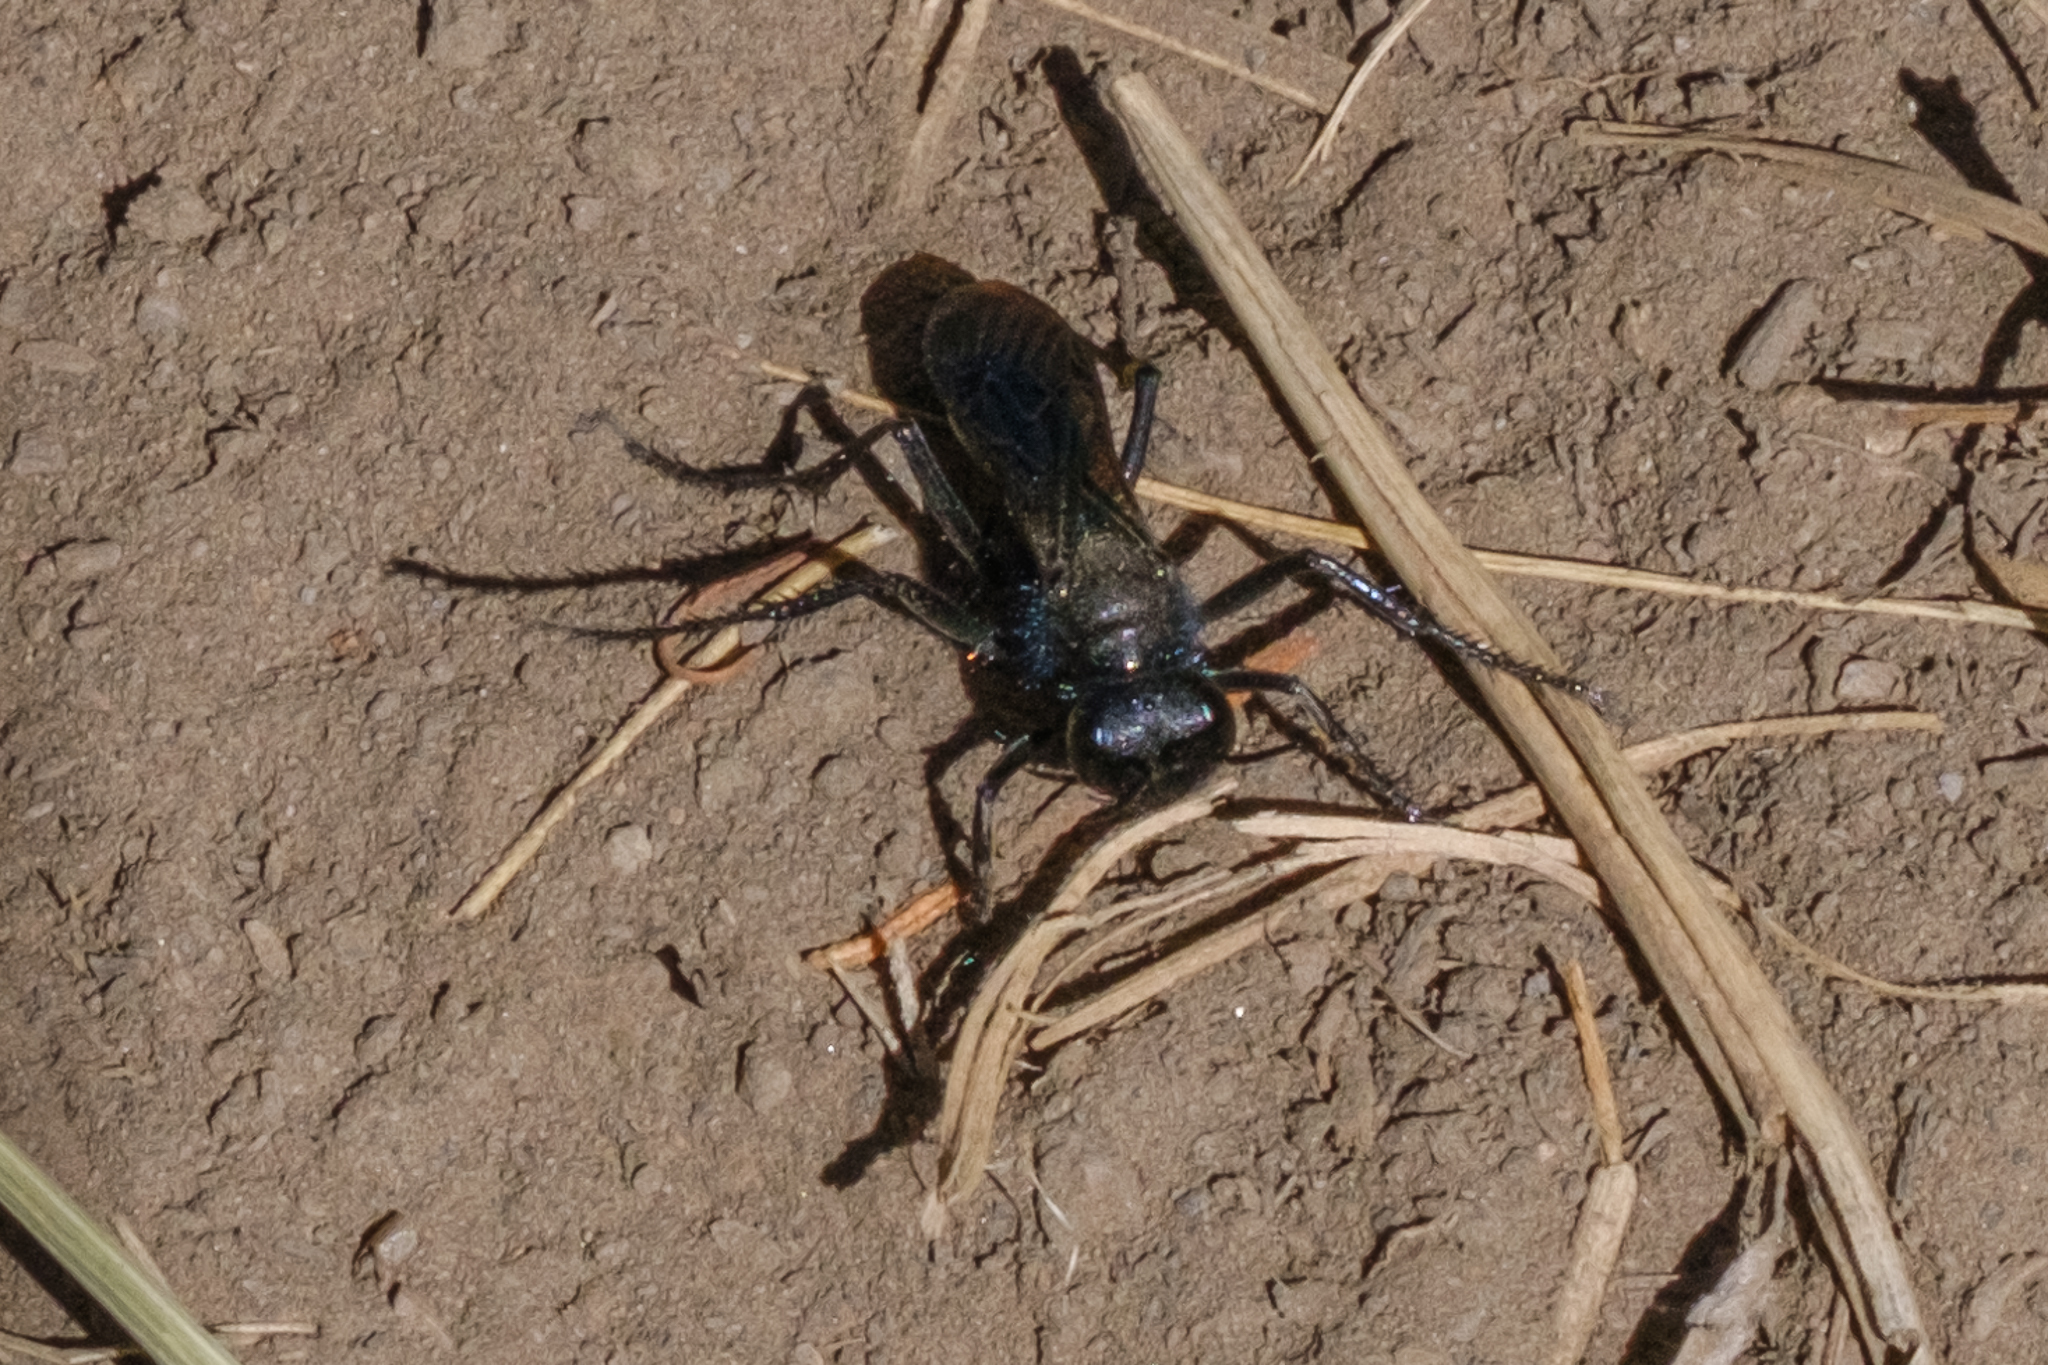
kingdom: Animalia
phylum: Arthropoda
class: Insecta
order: Hymenoptera
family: Sphecidae
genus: Podalonia
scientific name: Podalonia
